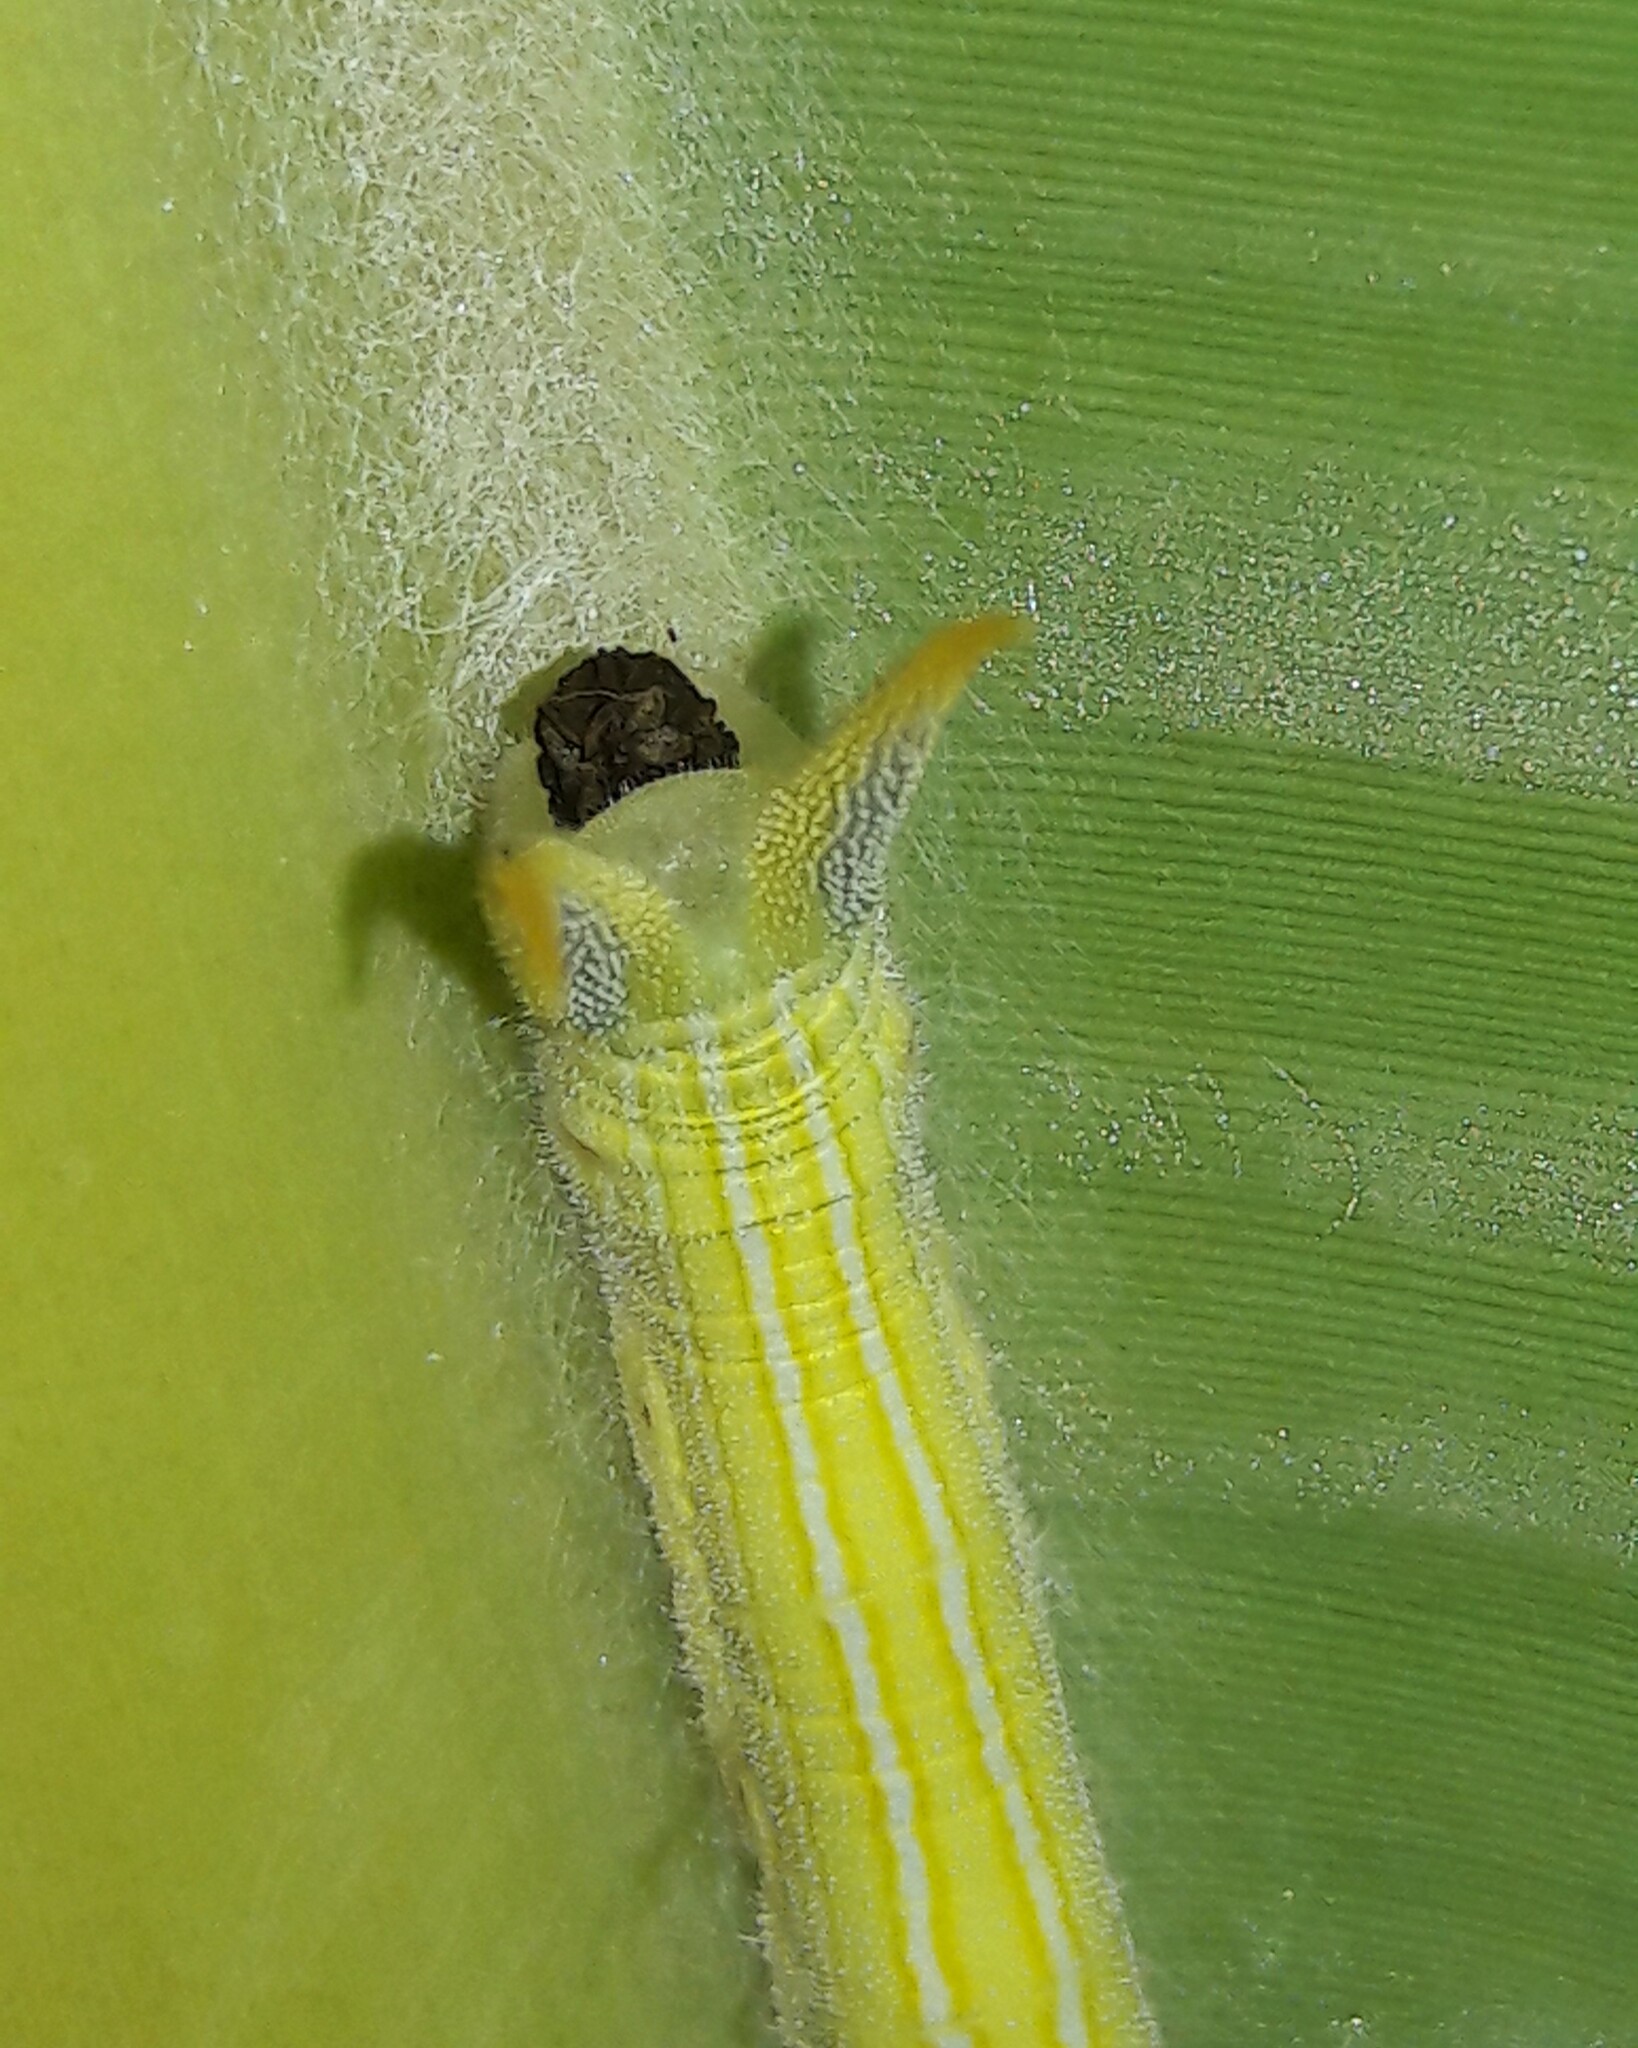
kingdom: Animalia
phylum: Arthropoda
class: Insecta
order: Diptera
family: Stratiomyidae
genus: Hermetia
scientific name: Hermetia illucens
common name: Black soldier fly
